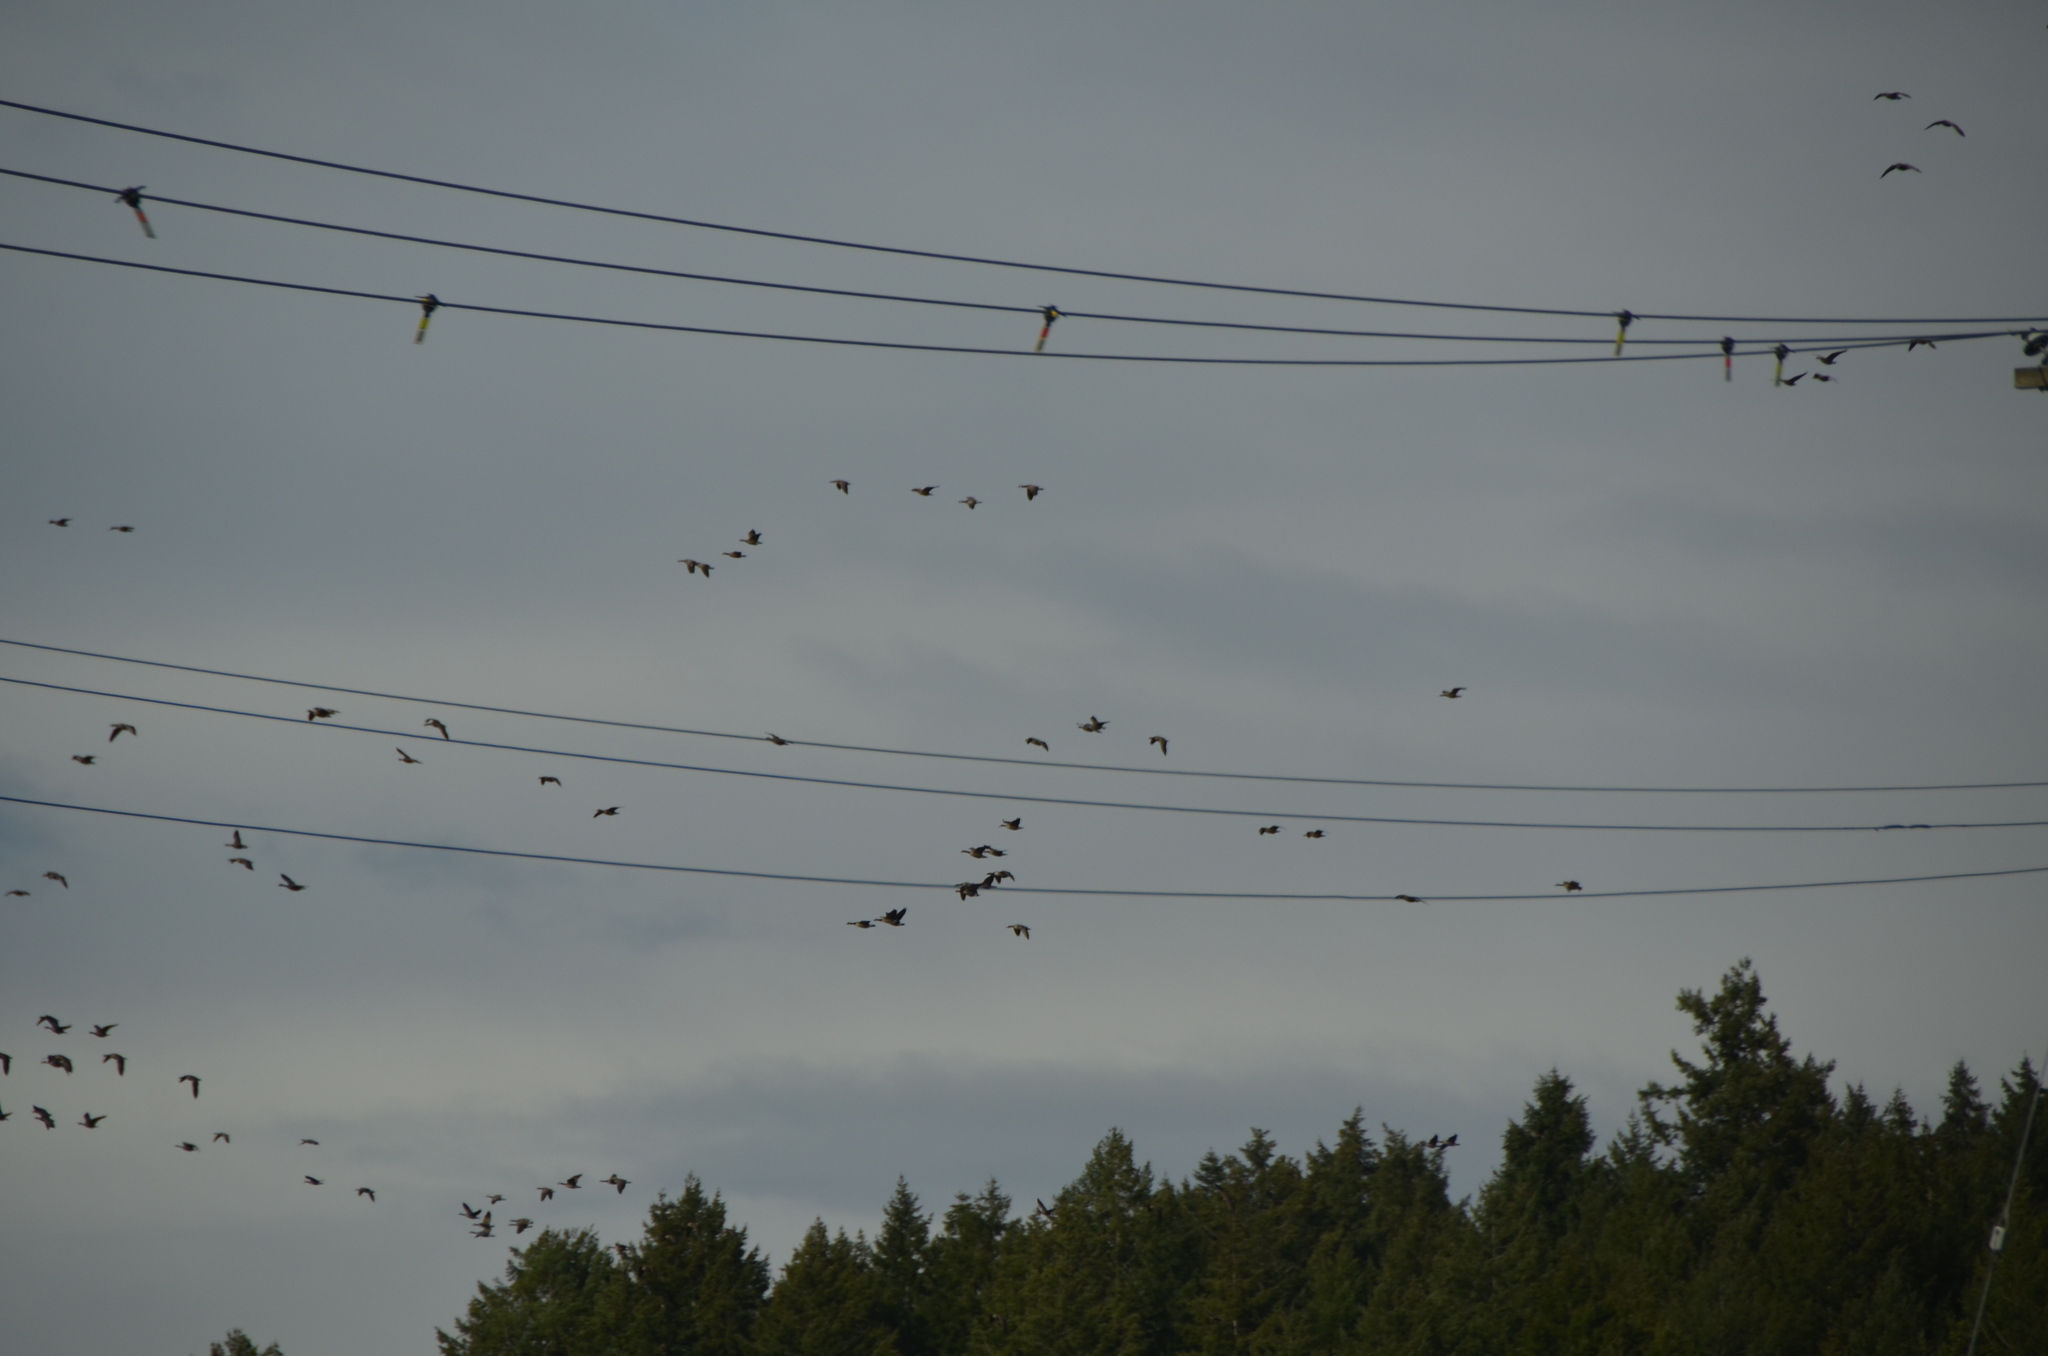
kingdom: Animalia
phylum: Chordata
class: Aves
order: Anseriformes
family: Anatidae
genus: Branta
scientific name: Branta canadensis
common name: Canada goose
